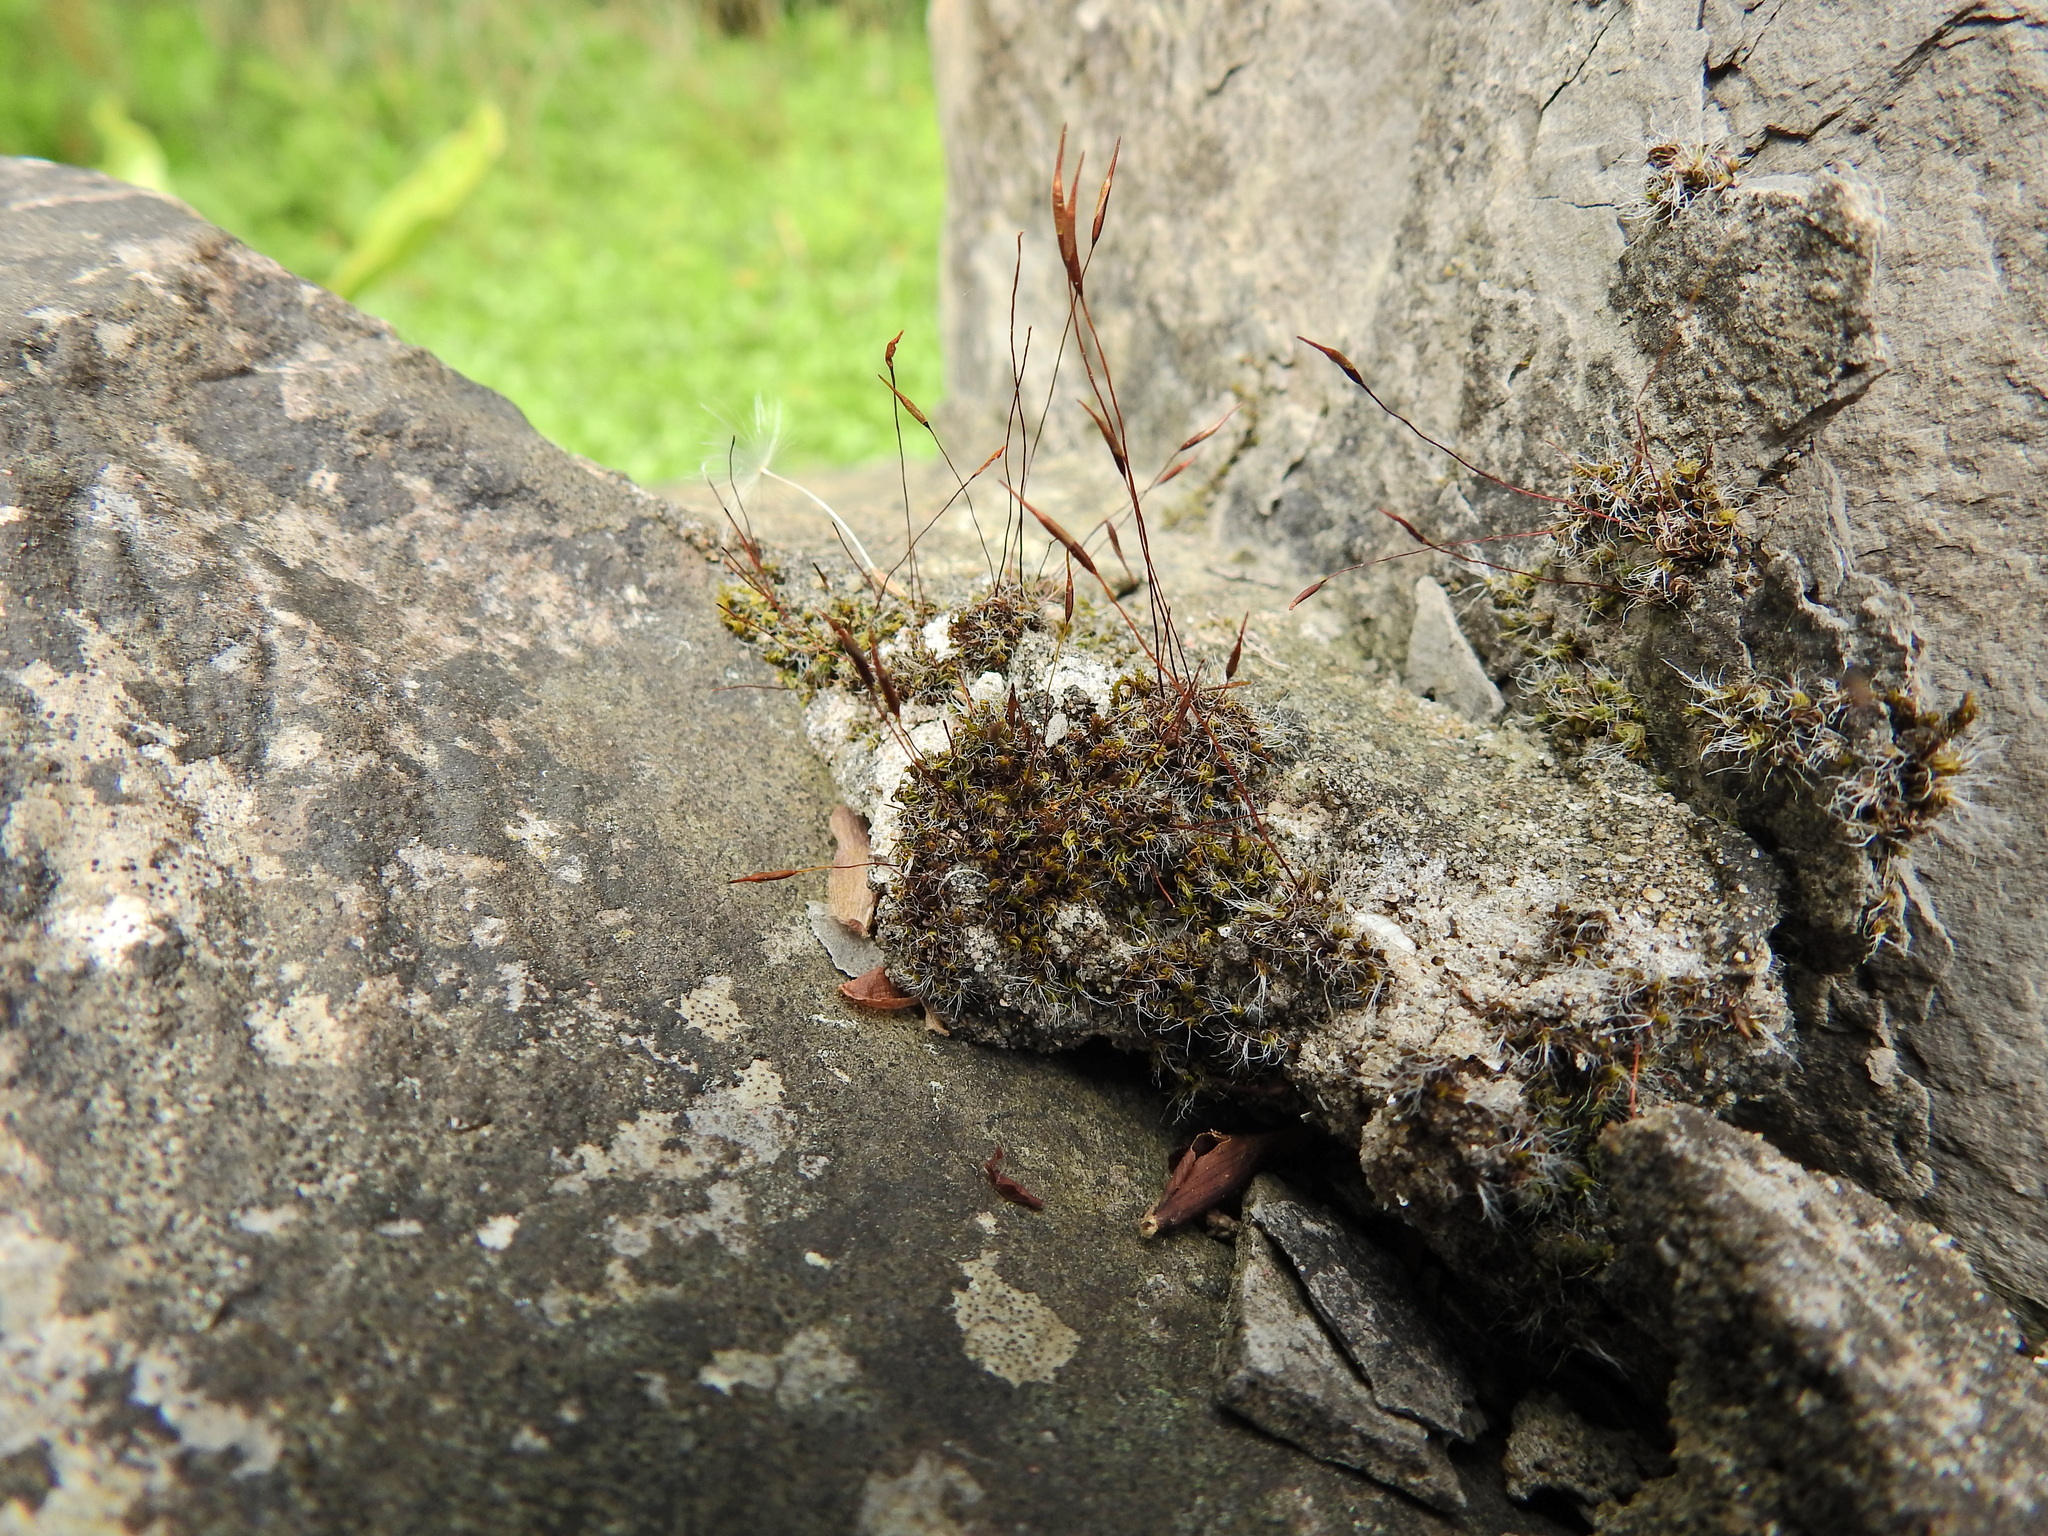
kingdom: Plantae
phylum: Bryophyta
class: Bryopsida
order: Pottiales
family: Pottiaceae
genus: Tortula
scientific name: Tortula muralis
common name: Wall screw-moss
